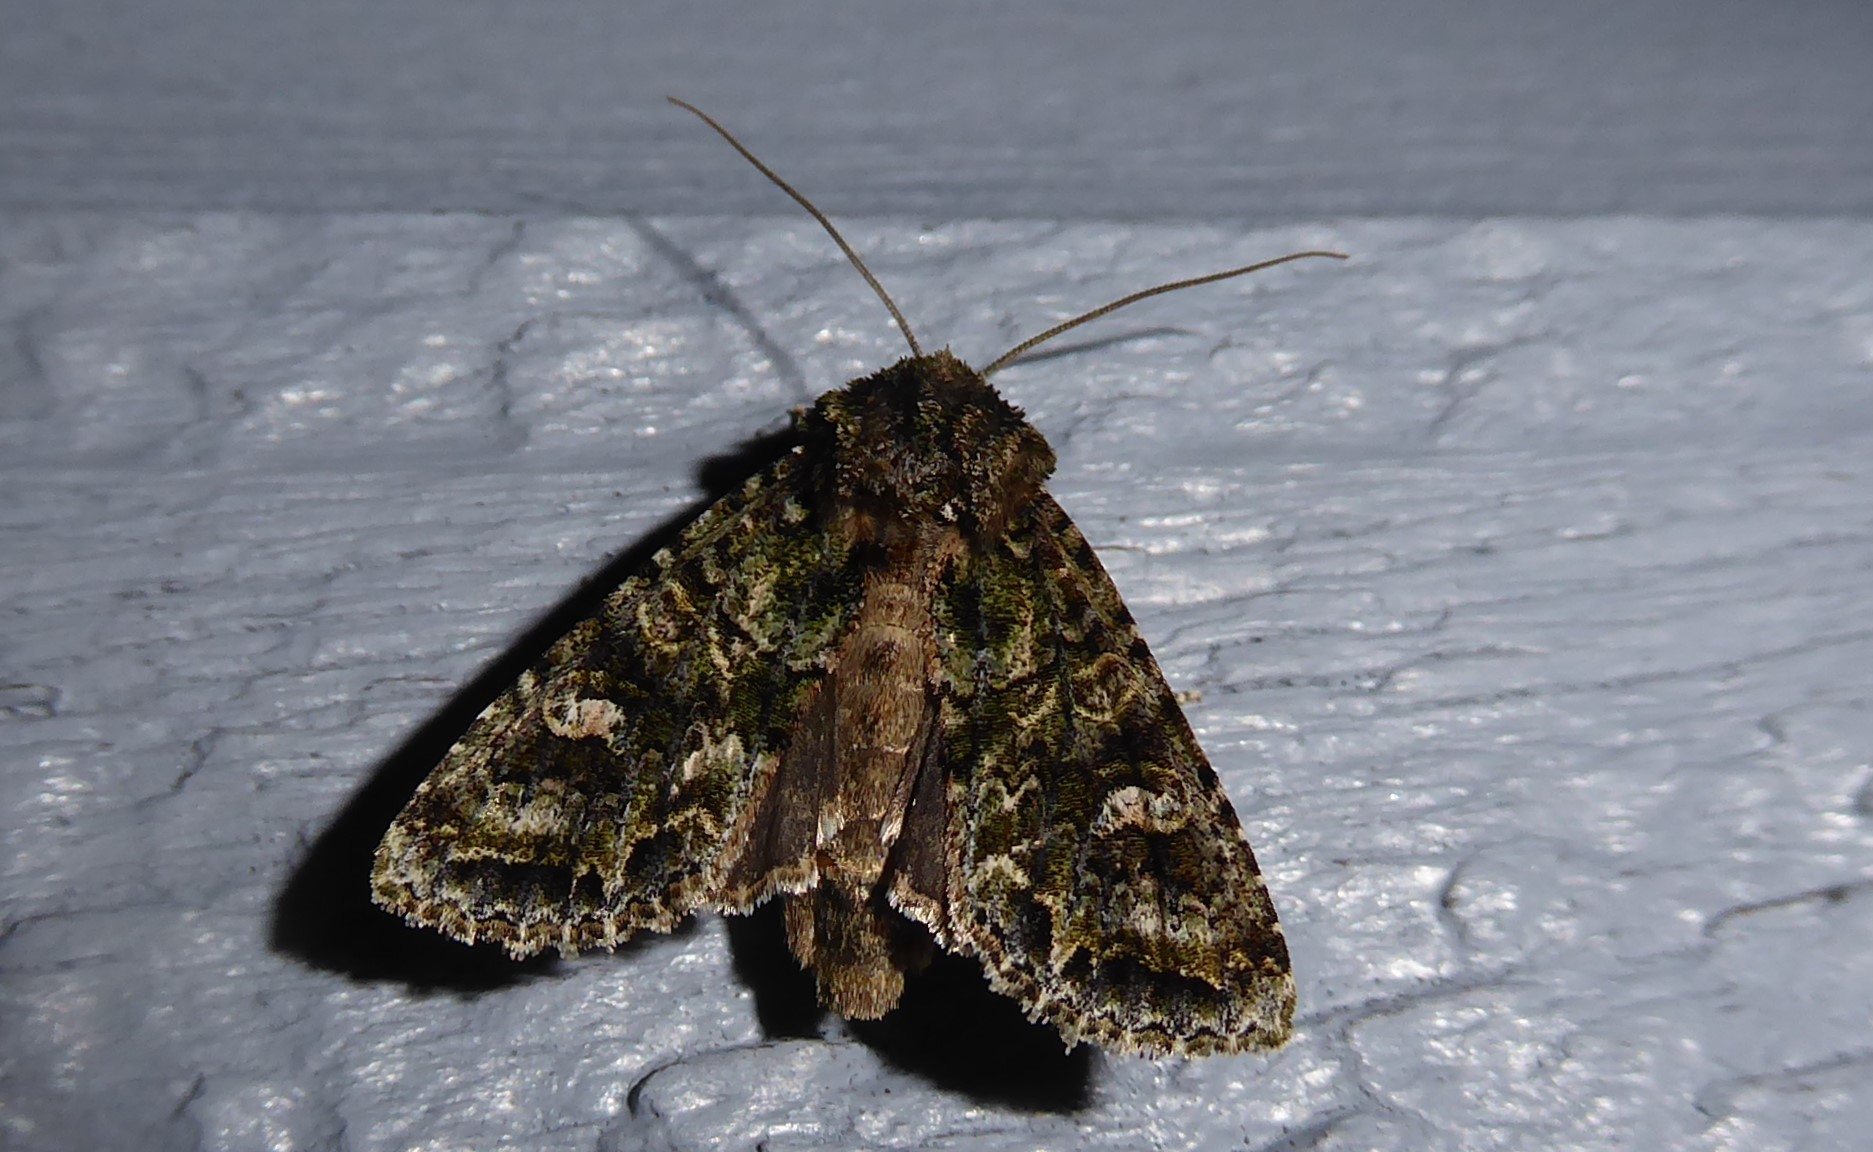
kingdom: Animalia
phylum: Arthropoda
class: Insecta
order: Lepidoptera
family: Noctuidae
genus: Ichneutica
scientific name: Ichneutica
